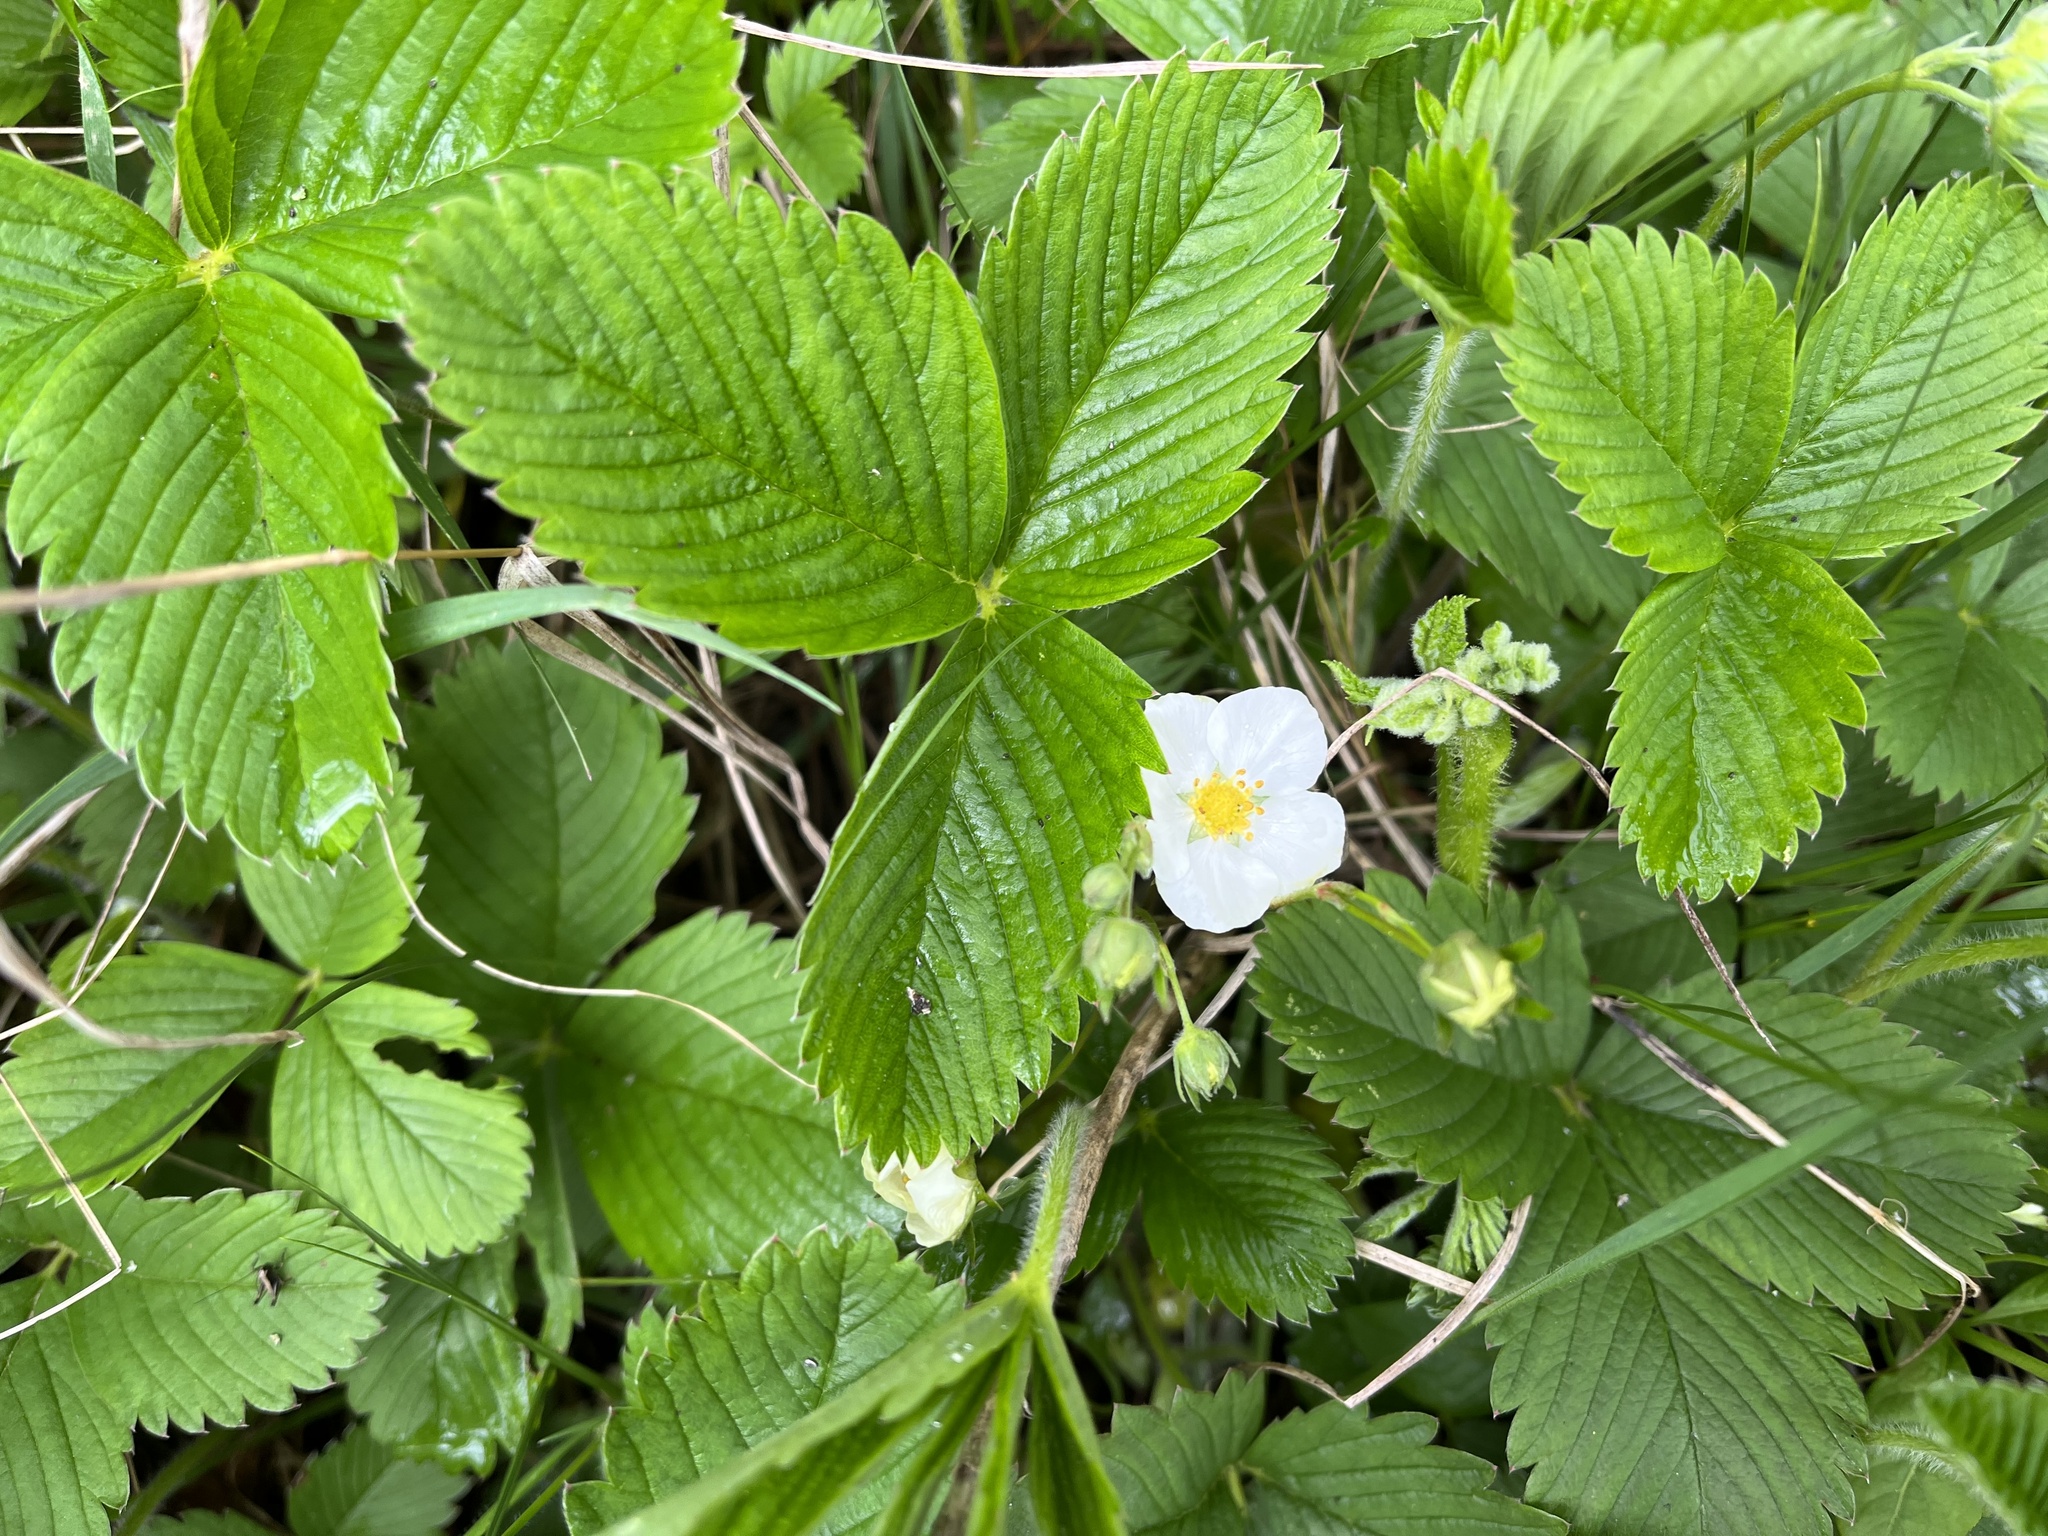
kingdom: Plantae
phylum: Tracheophyta
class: Magnoliopsida
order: Rosales
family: Rosaceae
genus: Fragaria
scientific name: Fragaria vesca
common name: Wild strawberry
